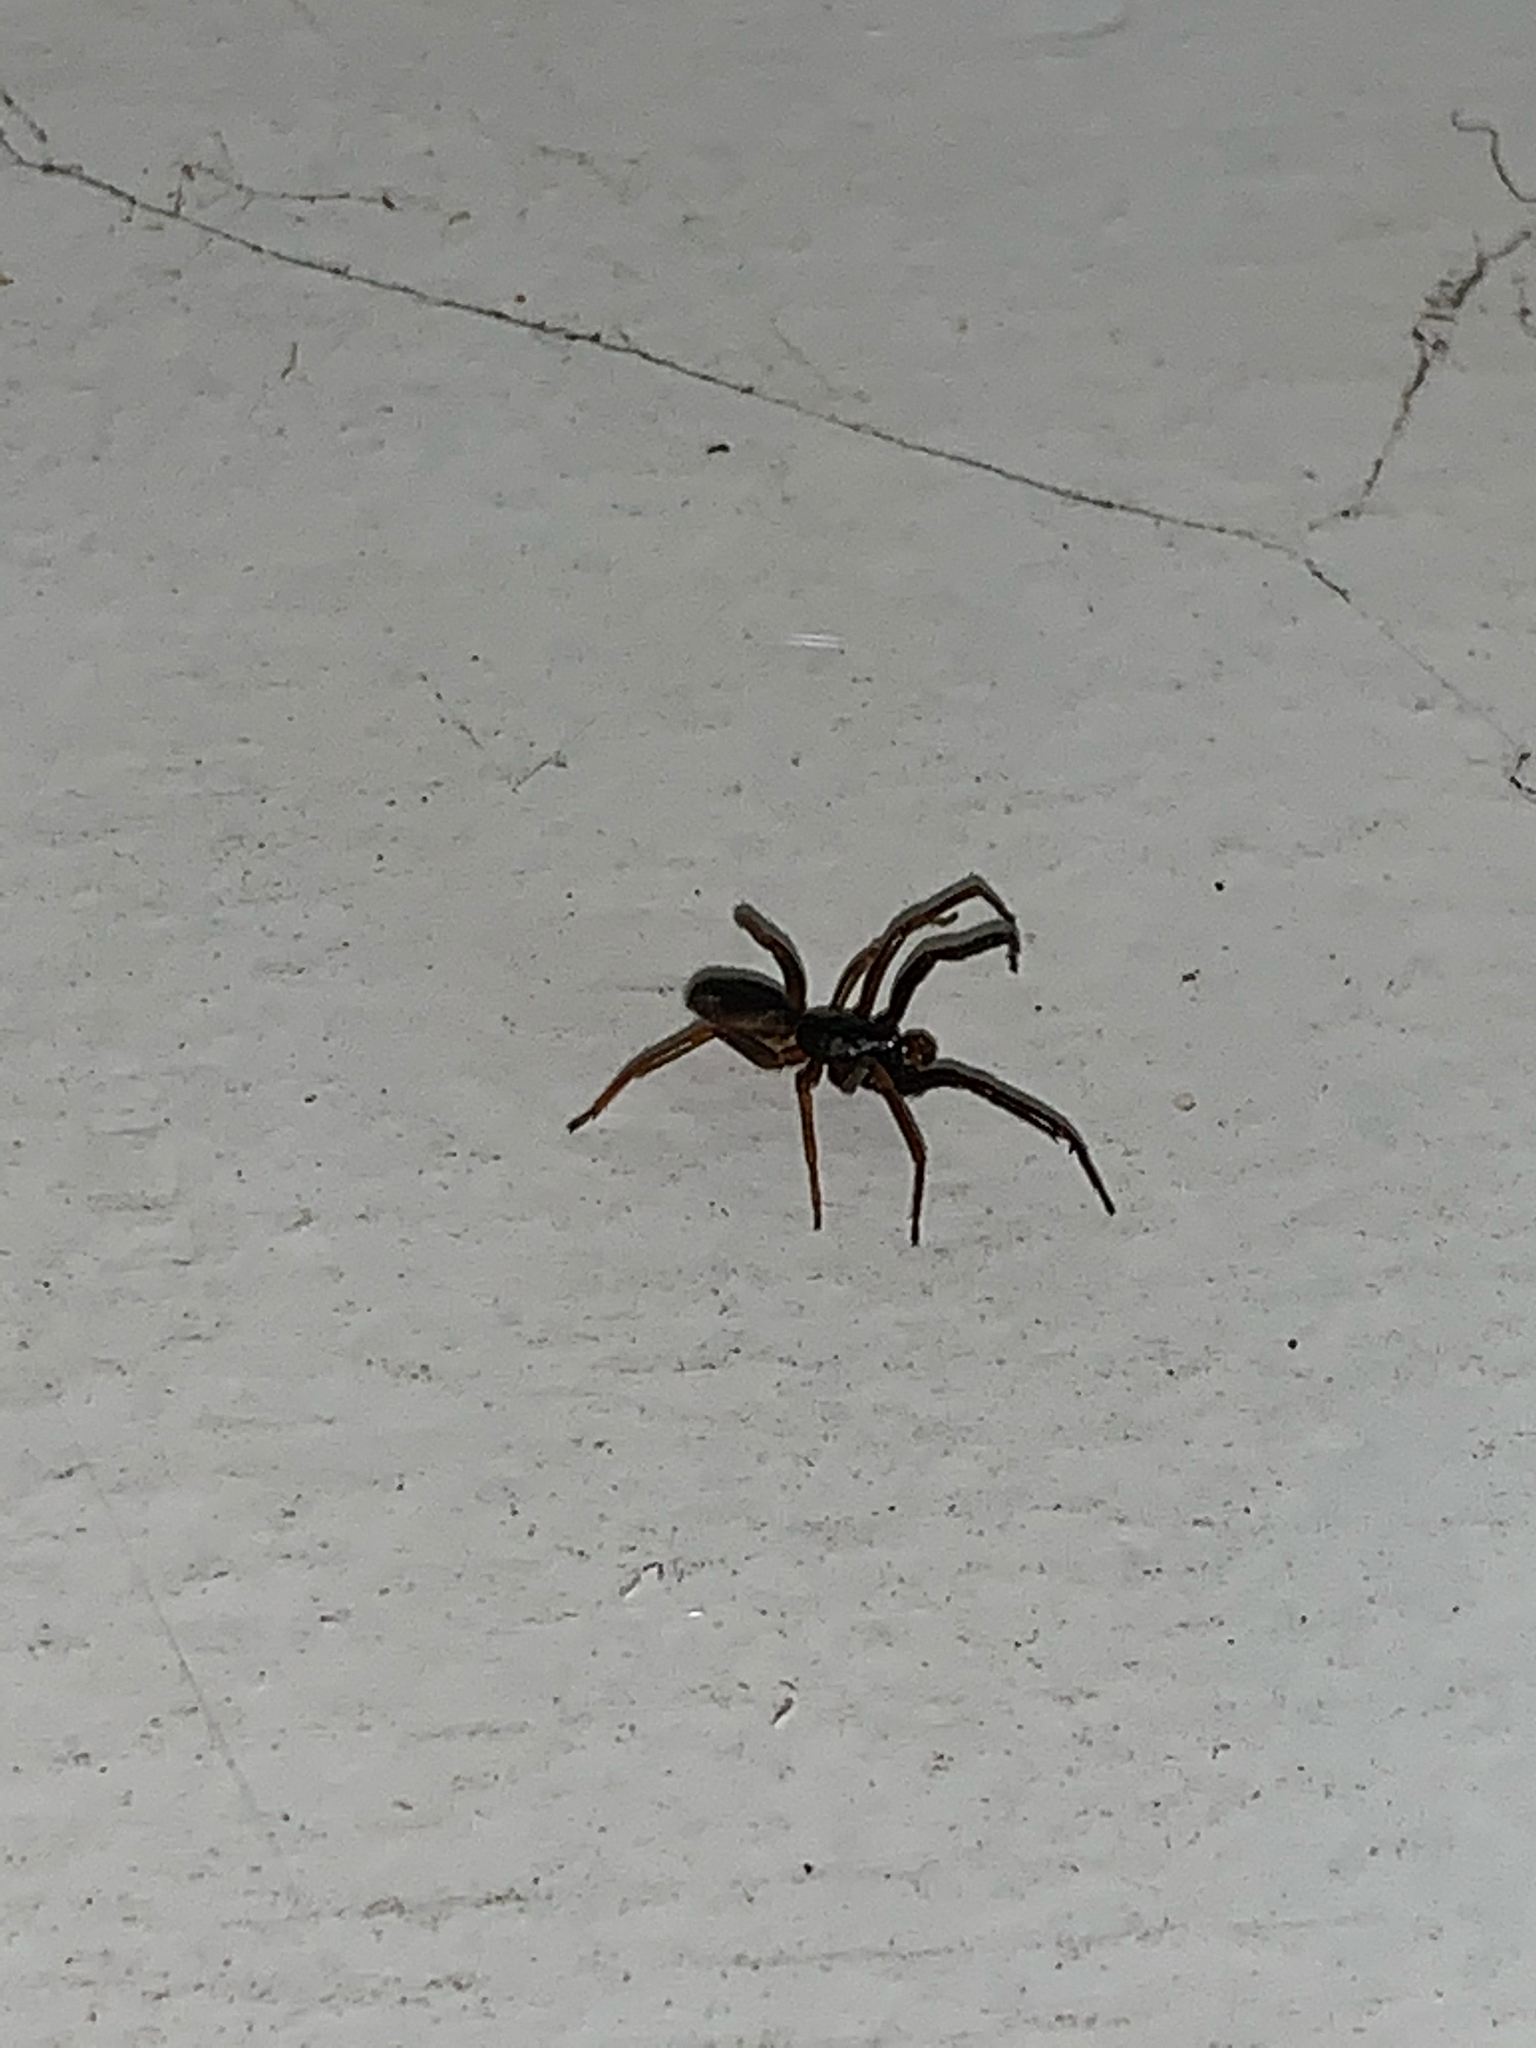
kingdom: Animalia
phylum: Arthropoda
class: Arachnida
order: Araneae
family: Segestriidae
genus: Ariadna
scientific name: Ariadna bicolor
